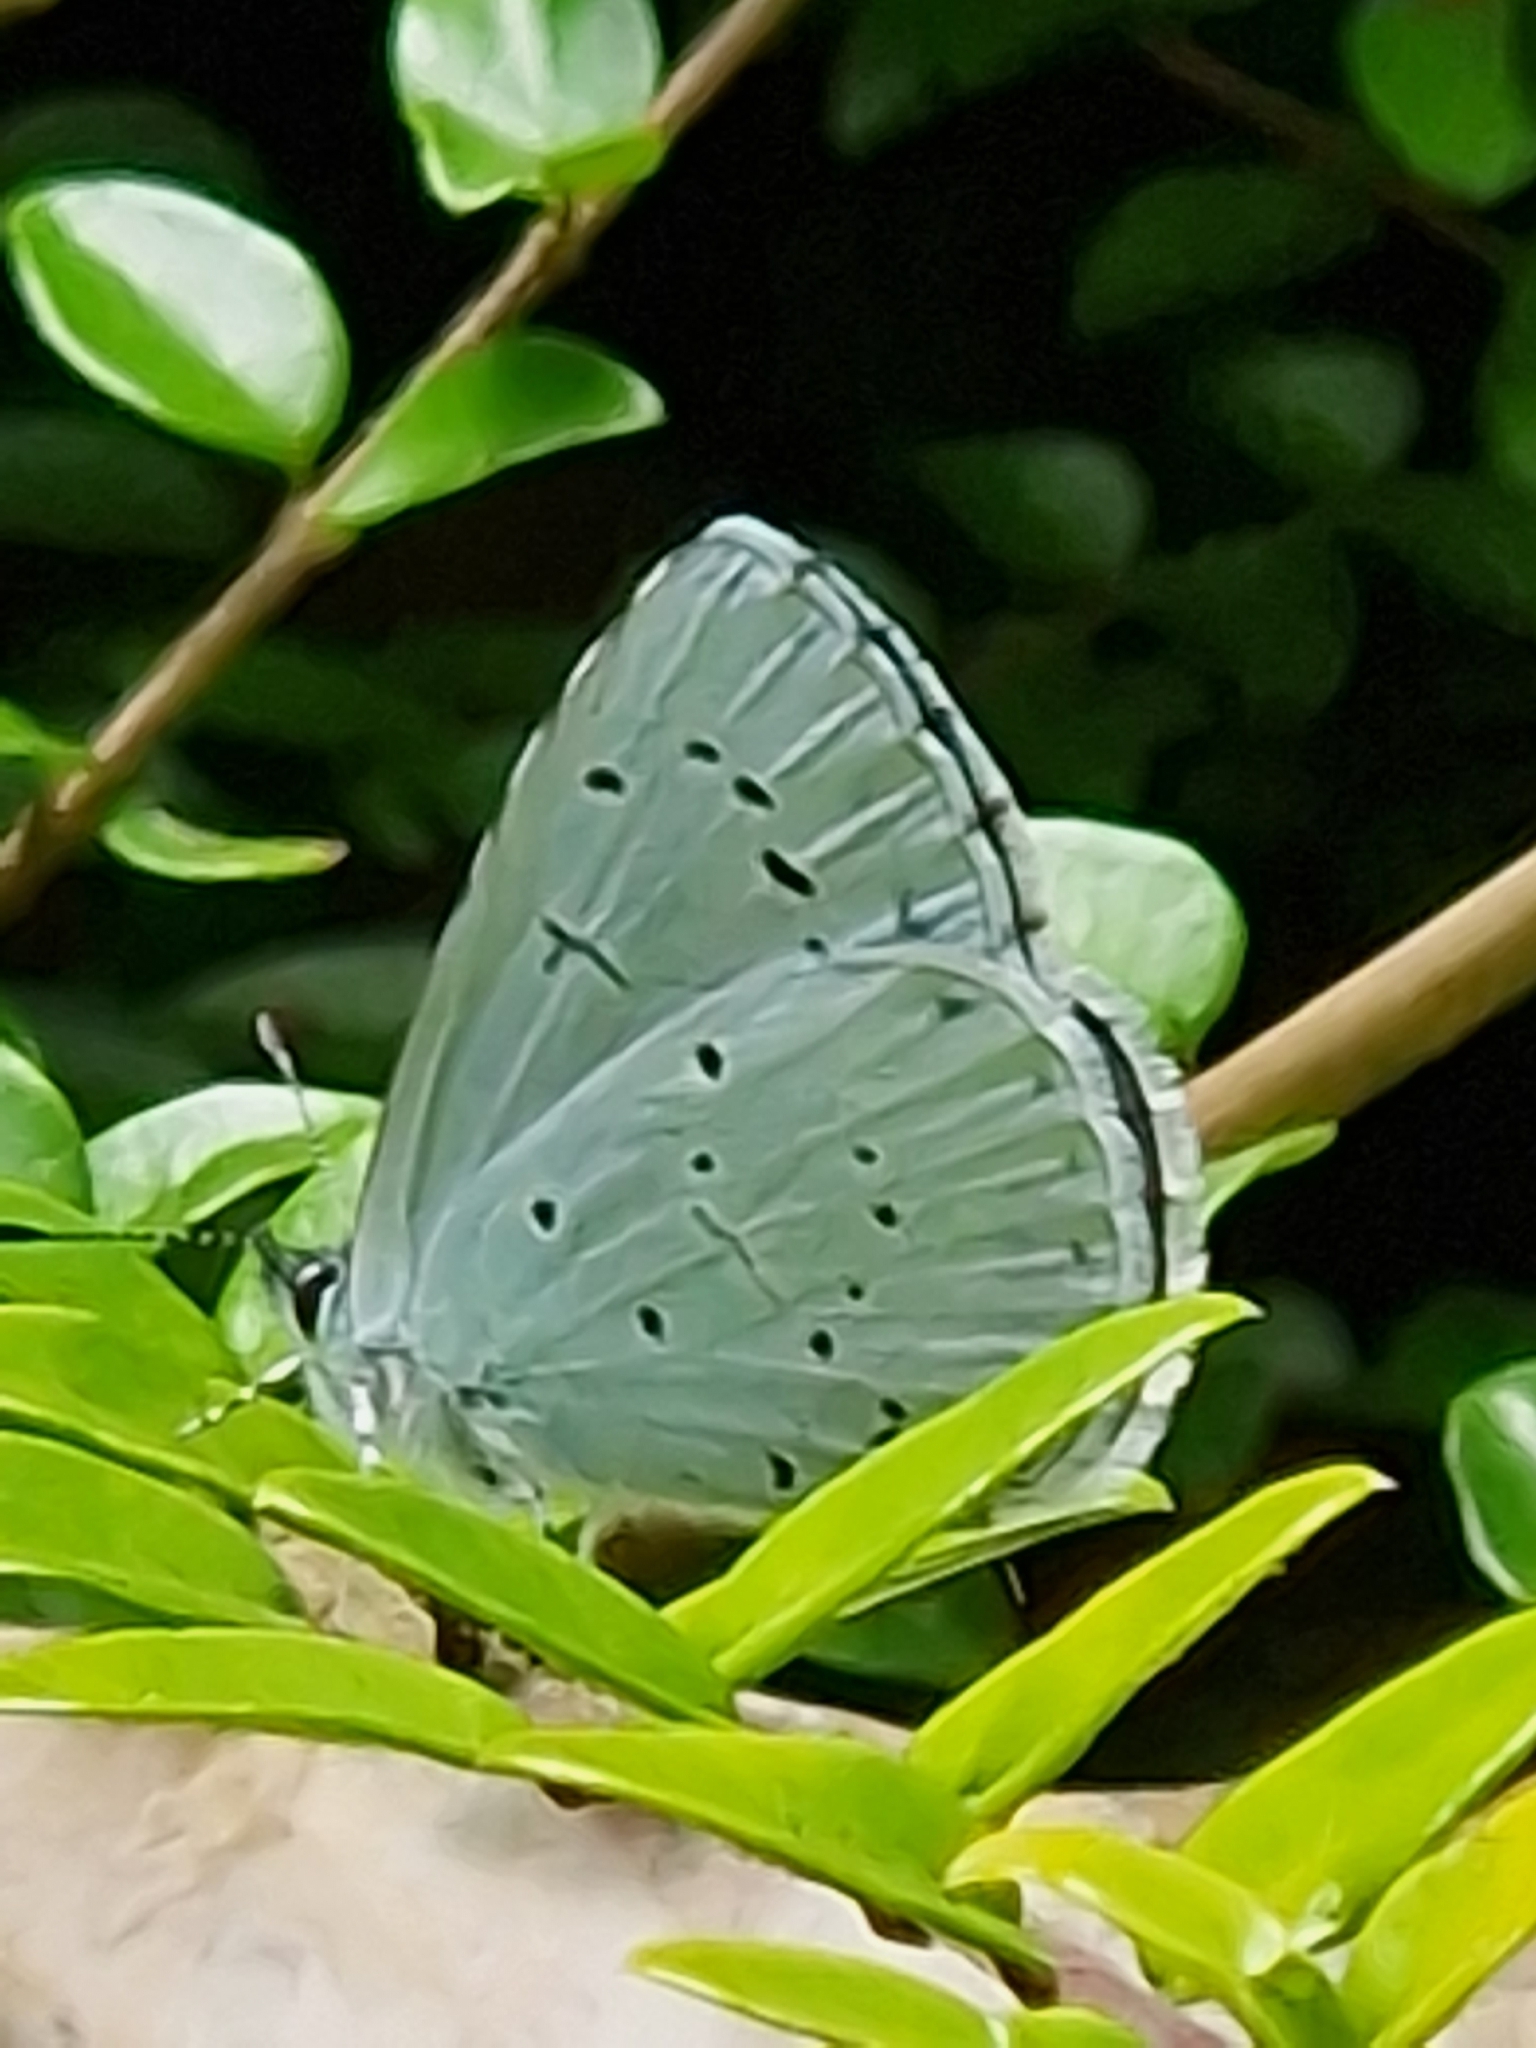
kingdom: Animalia
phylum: Arthropoda
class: Insecta
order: Lepidoptera
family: Lycaenidae
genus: Celastrina
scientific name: Celastrina argiolus
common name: Holly blue
